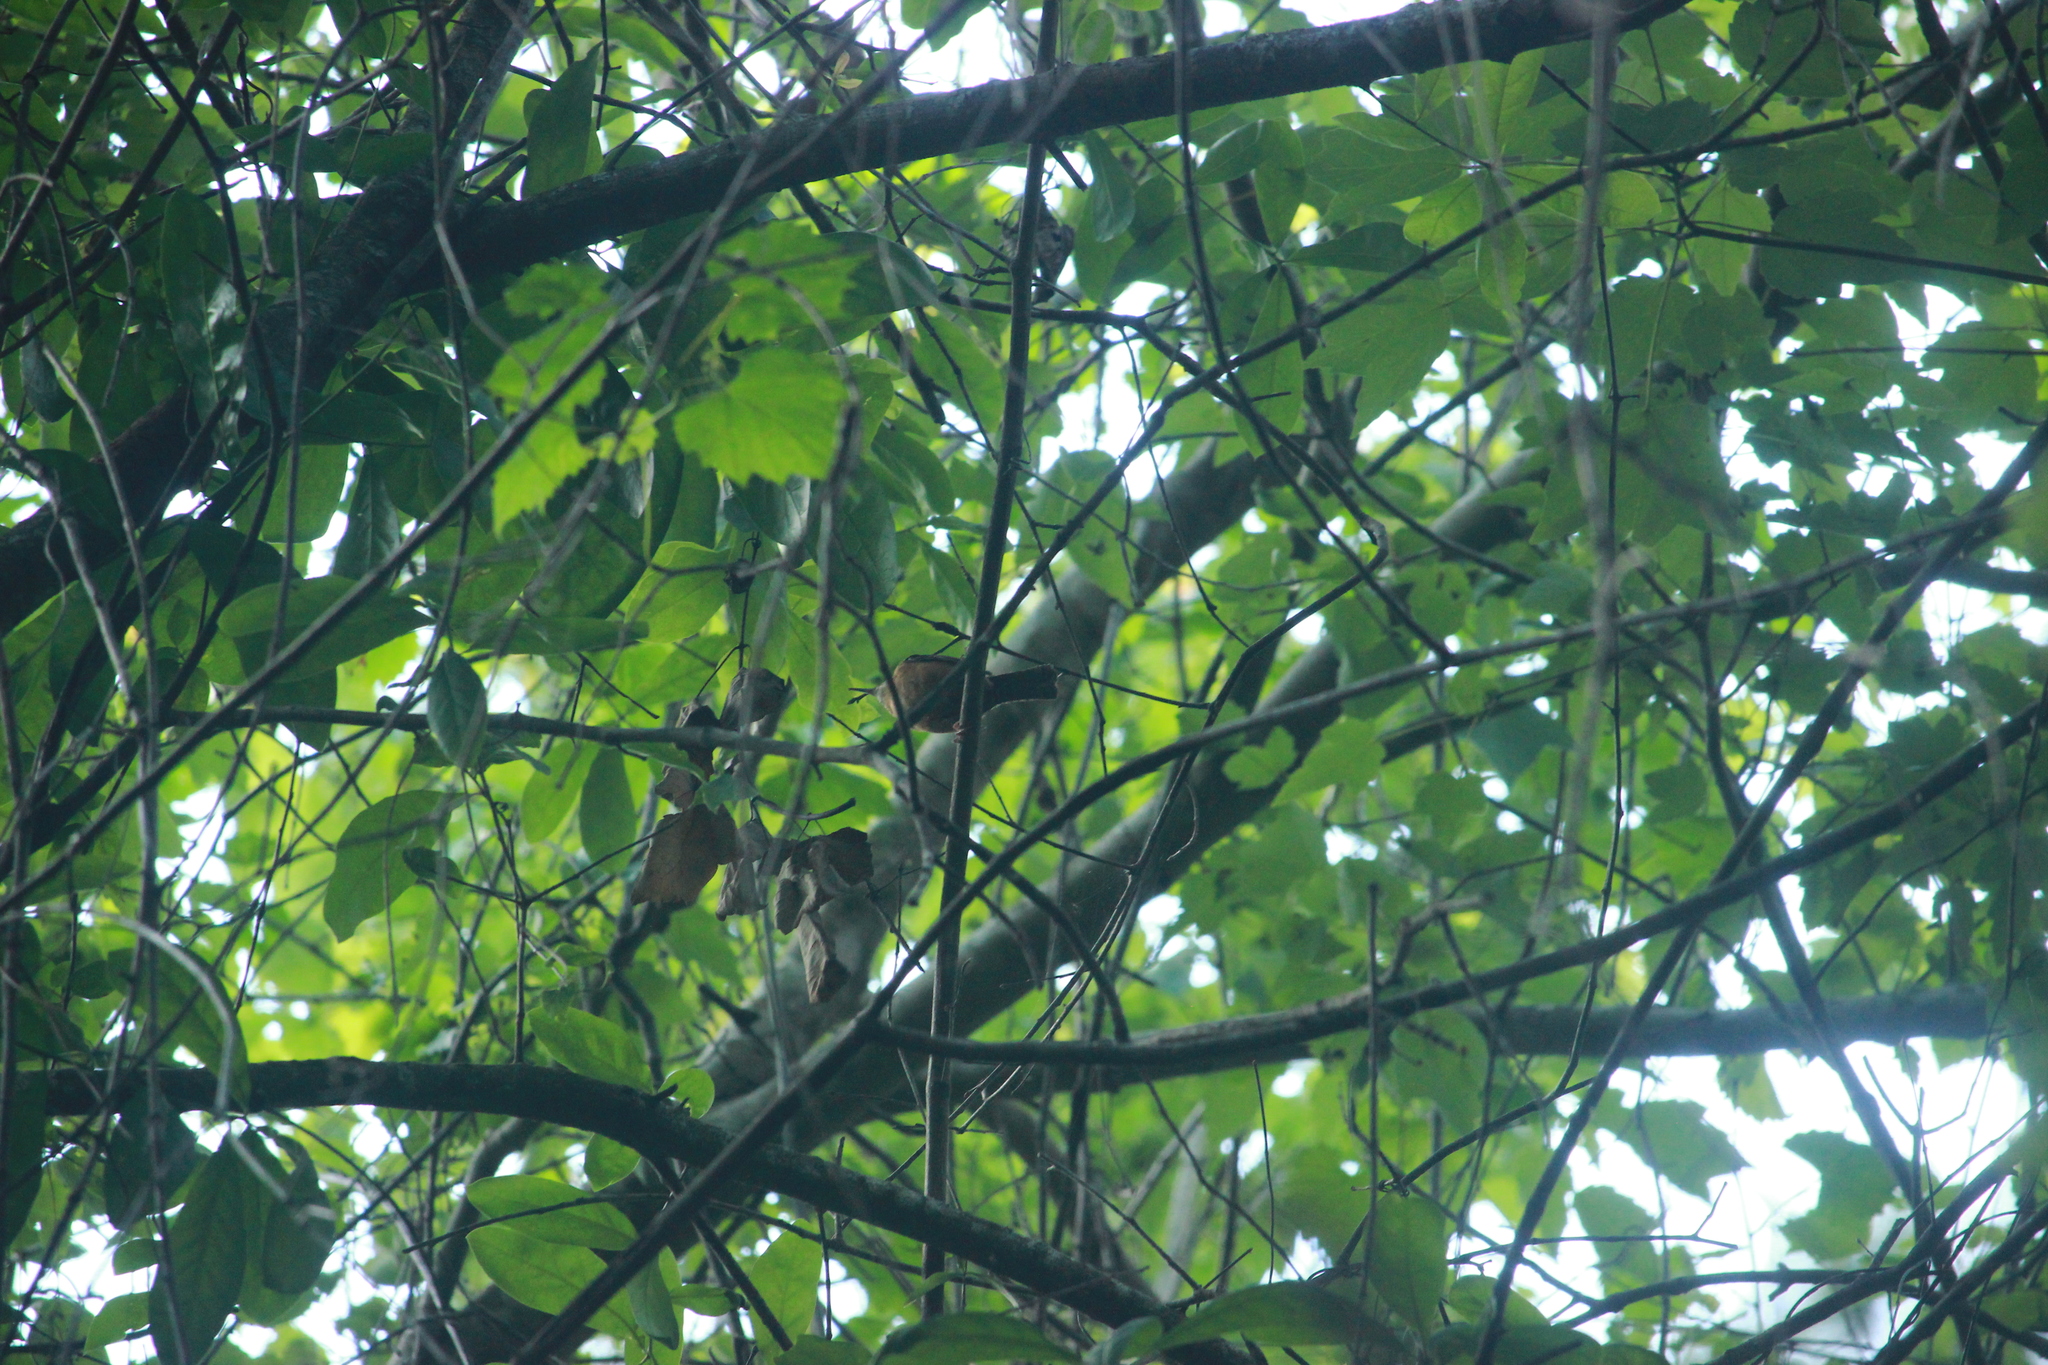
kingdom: Animalia
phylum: Chordata
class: Aves
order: Passeriformes
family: Troglodytidae
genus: Thryothorus
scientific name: Thryothorus ludovicianus
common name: Carolina wren
